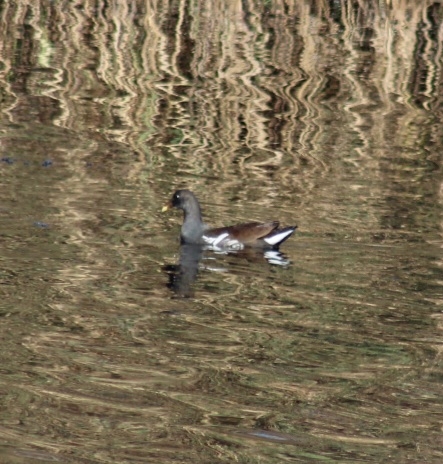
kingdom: Animalia
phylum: Chordata
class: Aves
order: Gruiformes
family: Rallidae
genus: Gallinula
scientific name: Gallinula chloropus
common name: Common moorhen
